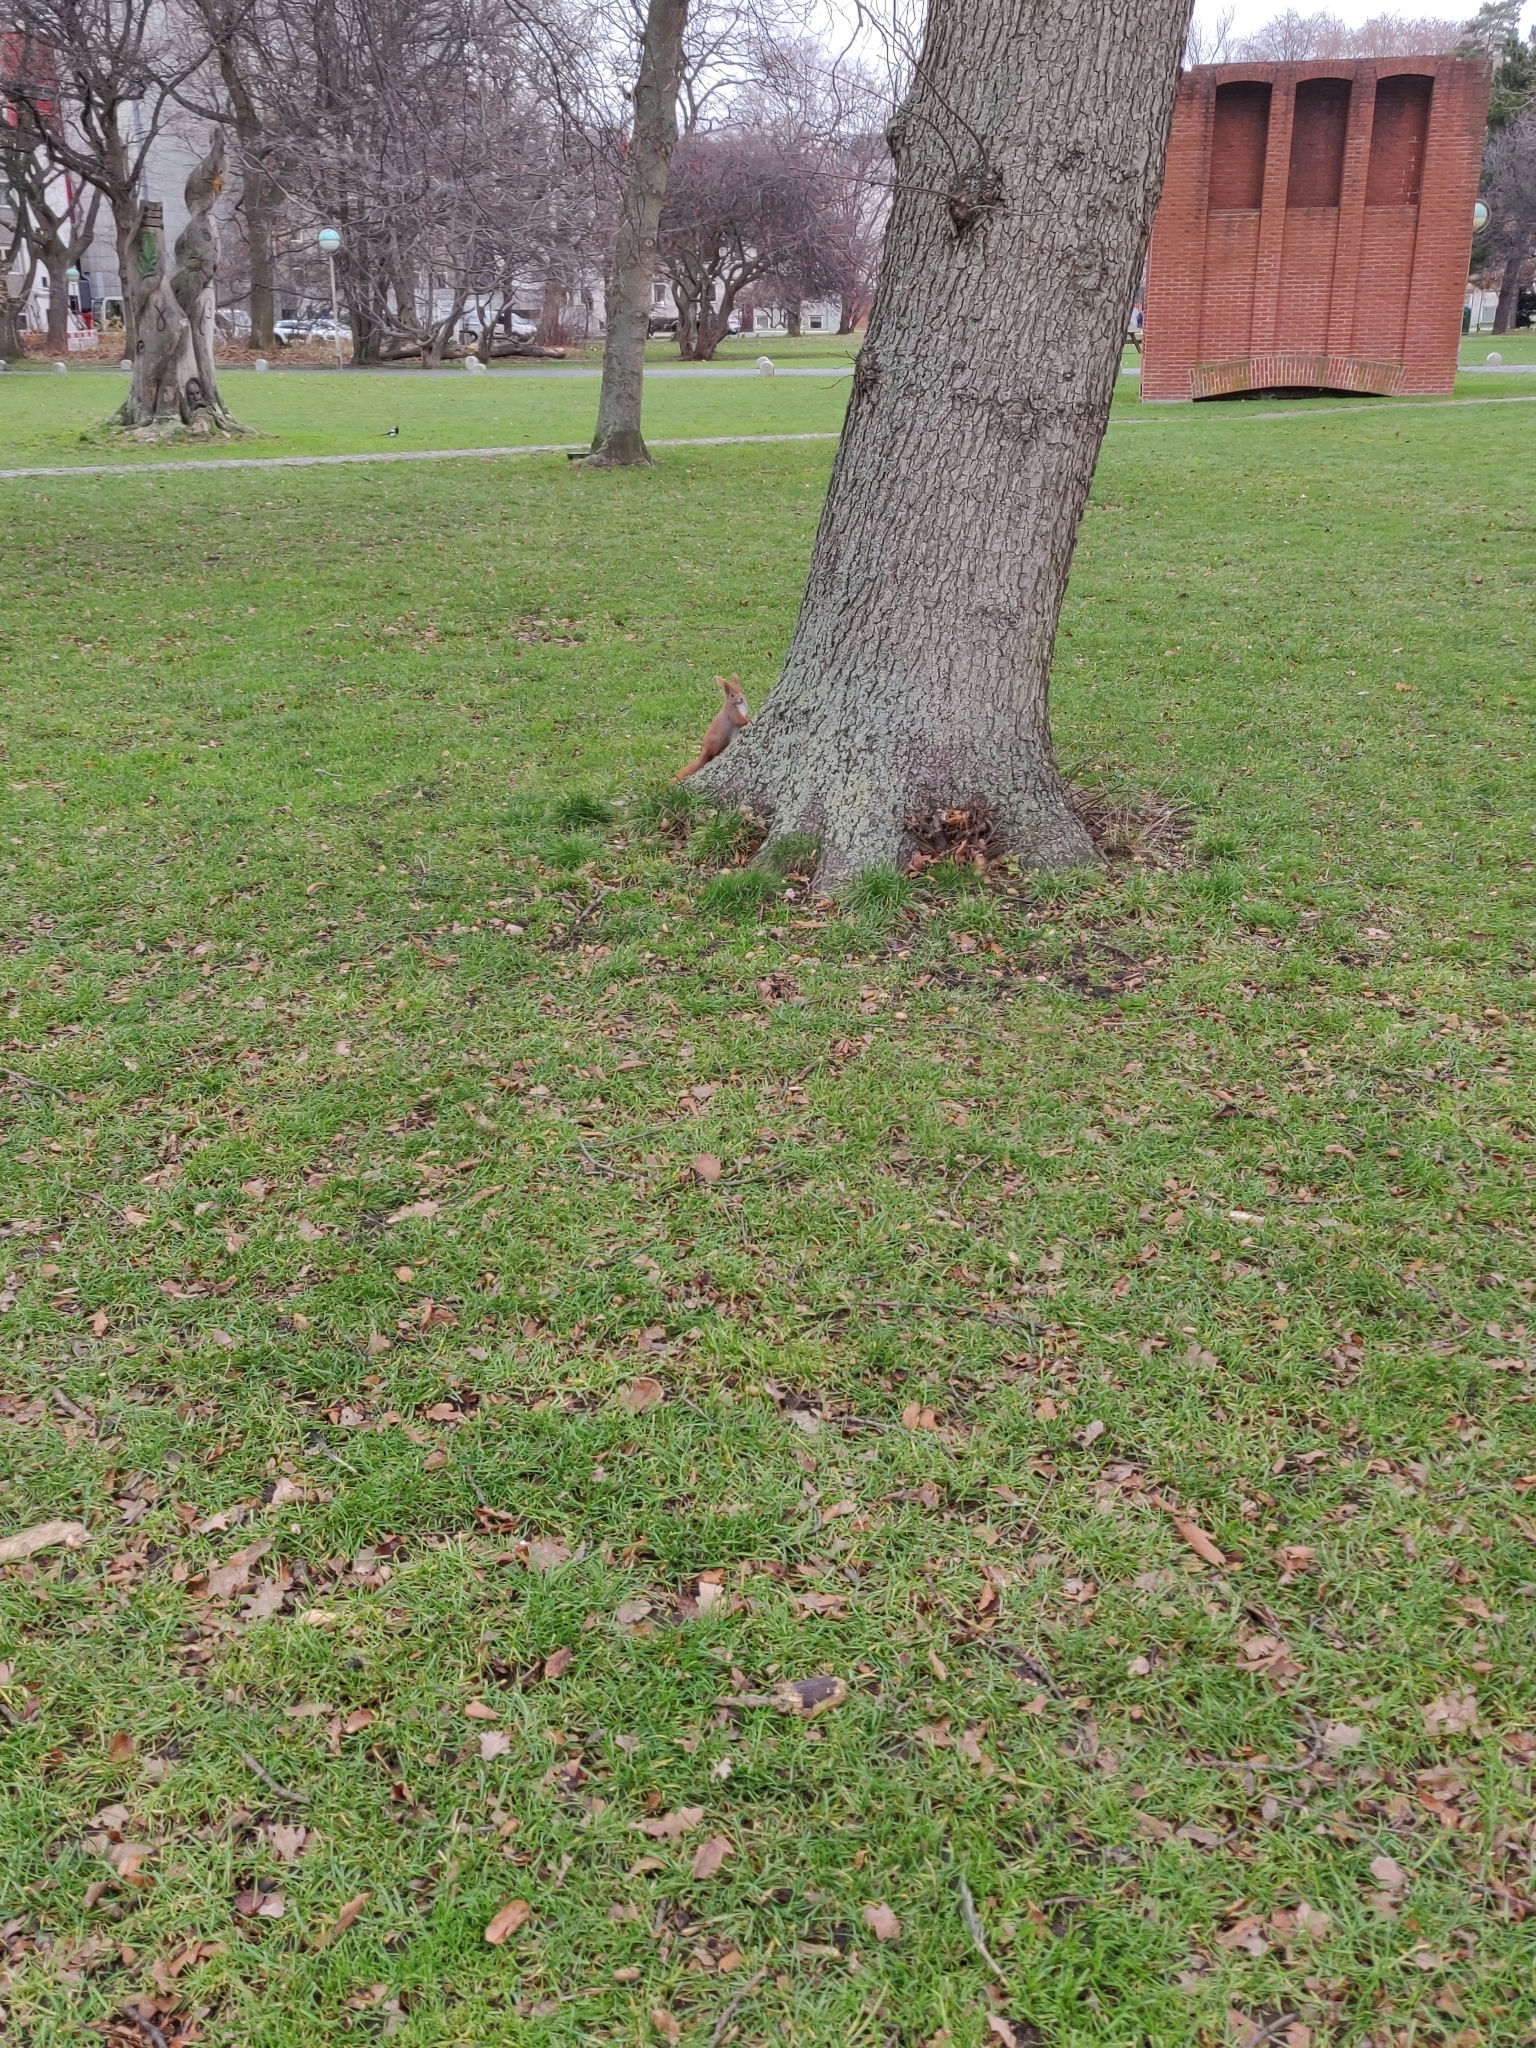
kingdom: Animalia
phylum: Chordata
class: Mammalia
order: Rodentia
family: Sciuridae
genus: Sciurus
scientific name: Sciurus vulgaris
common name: Eurasian red squirrel
